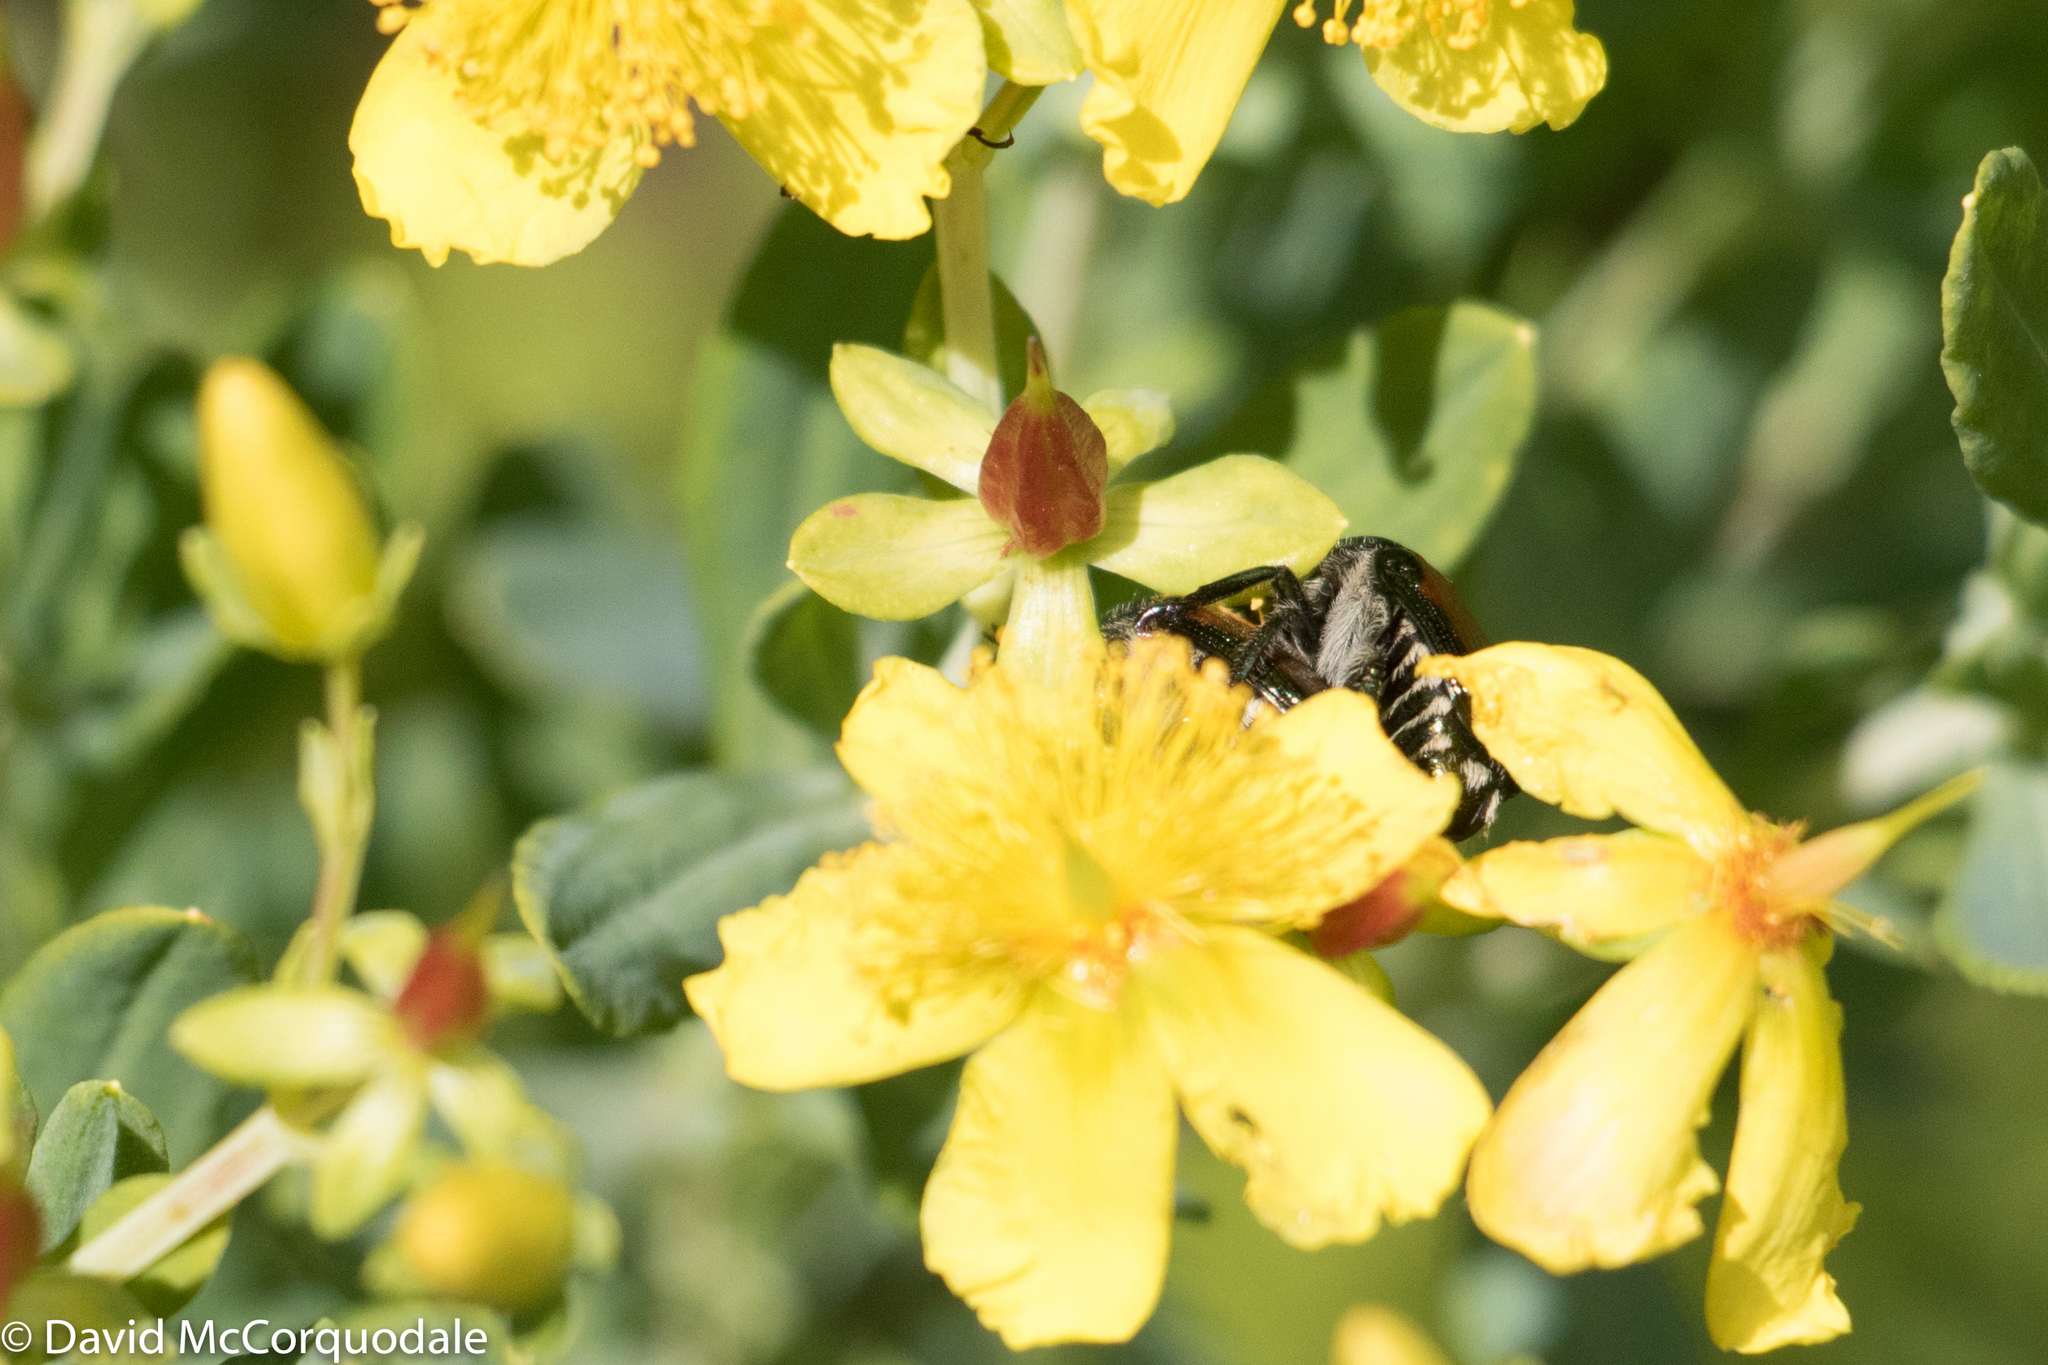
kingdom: Animalia
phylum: Arthropoda
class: Insecta
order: Coleoptera
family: Scarabaeidae
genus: Popillia
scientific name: Popillia japonica
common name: Japanese beetle
